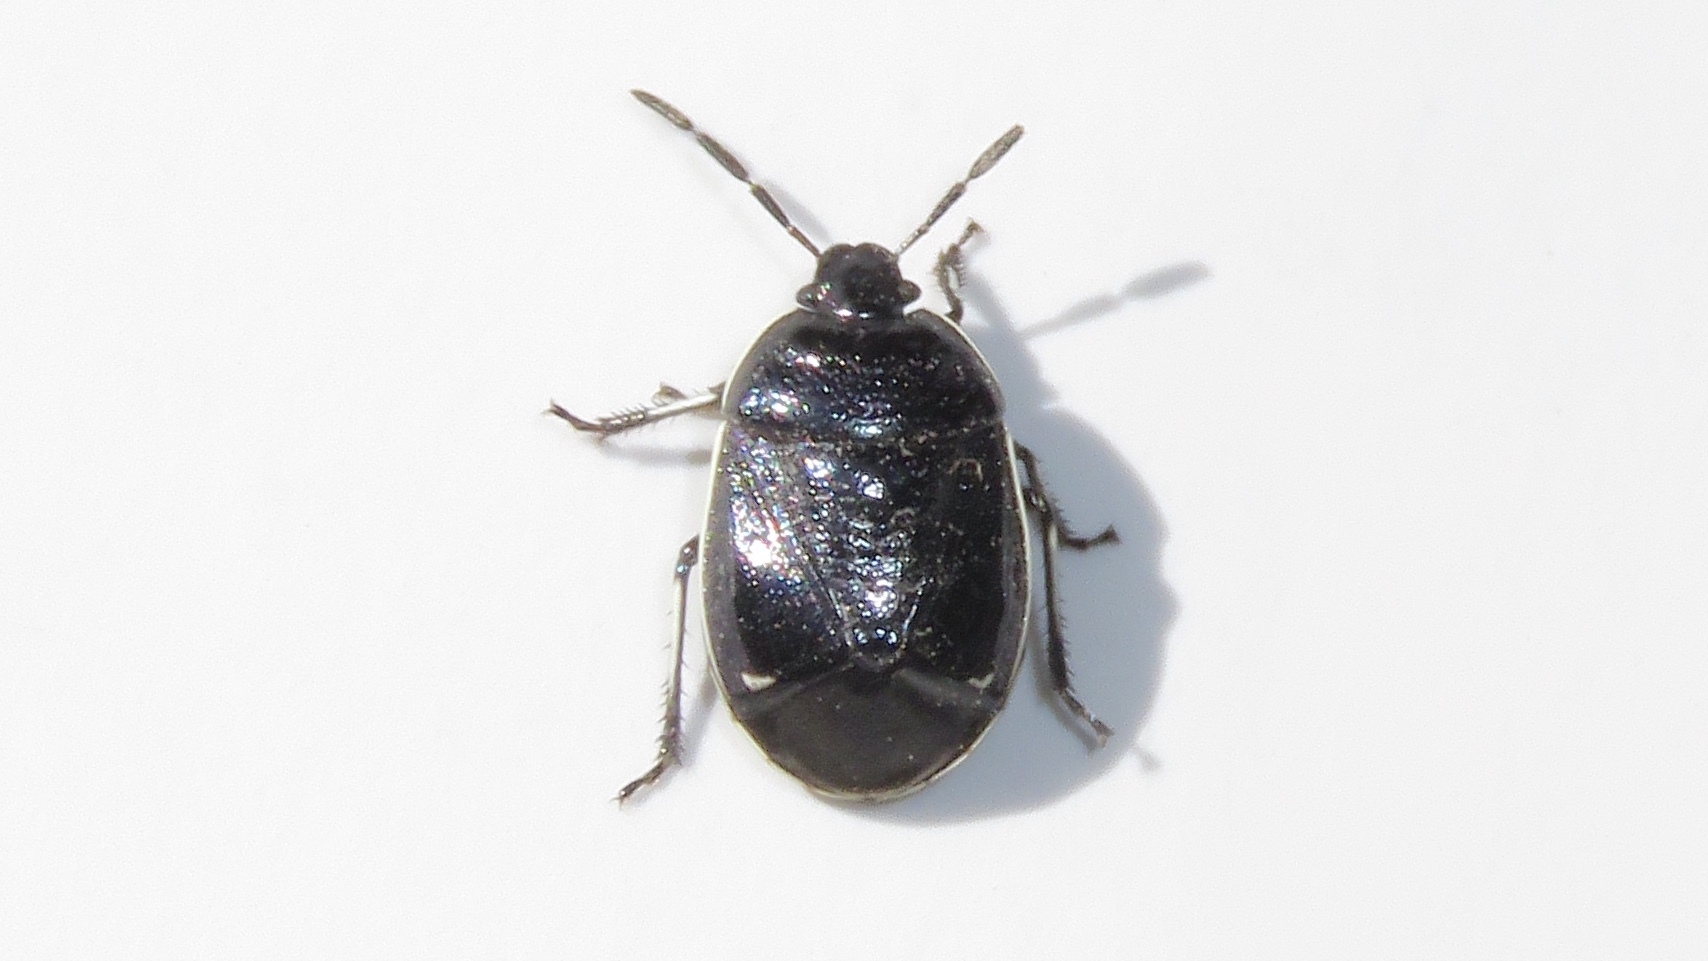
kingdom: Animalia
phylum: Arthropoda
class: Insecta
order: Hemiptera
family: Cydnidae
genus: Sehirus
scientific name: Sehirus cinctus
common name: White-margined burrower bug
